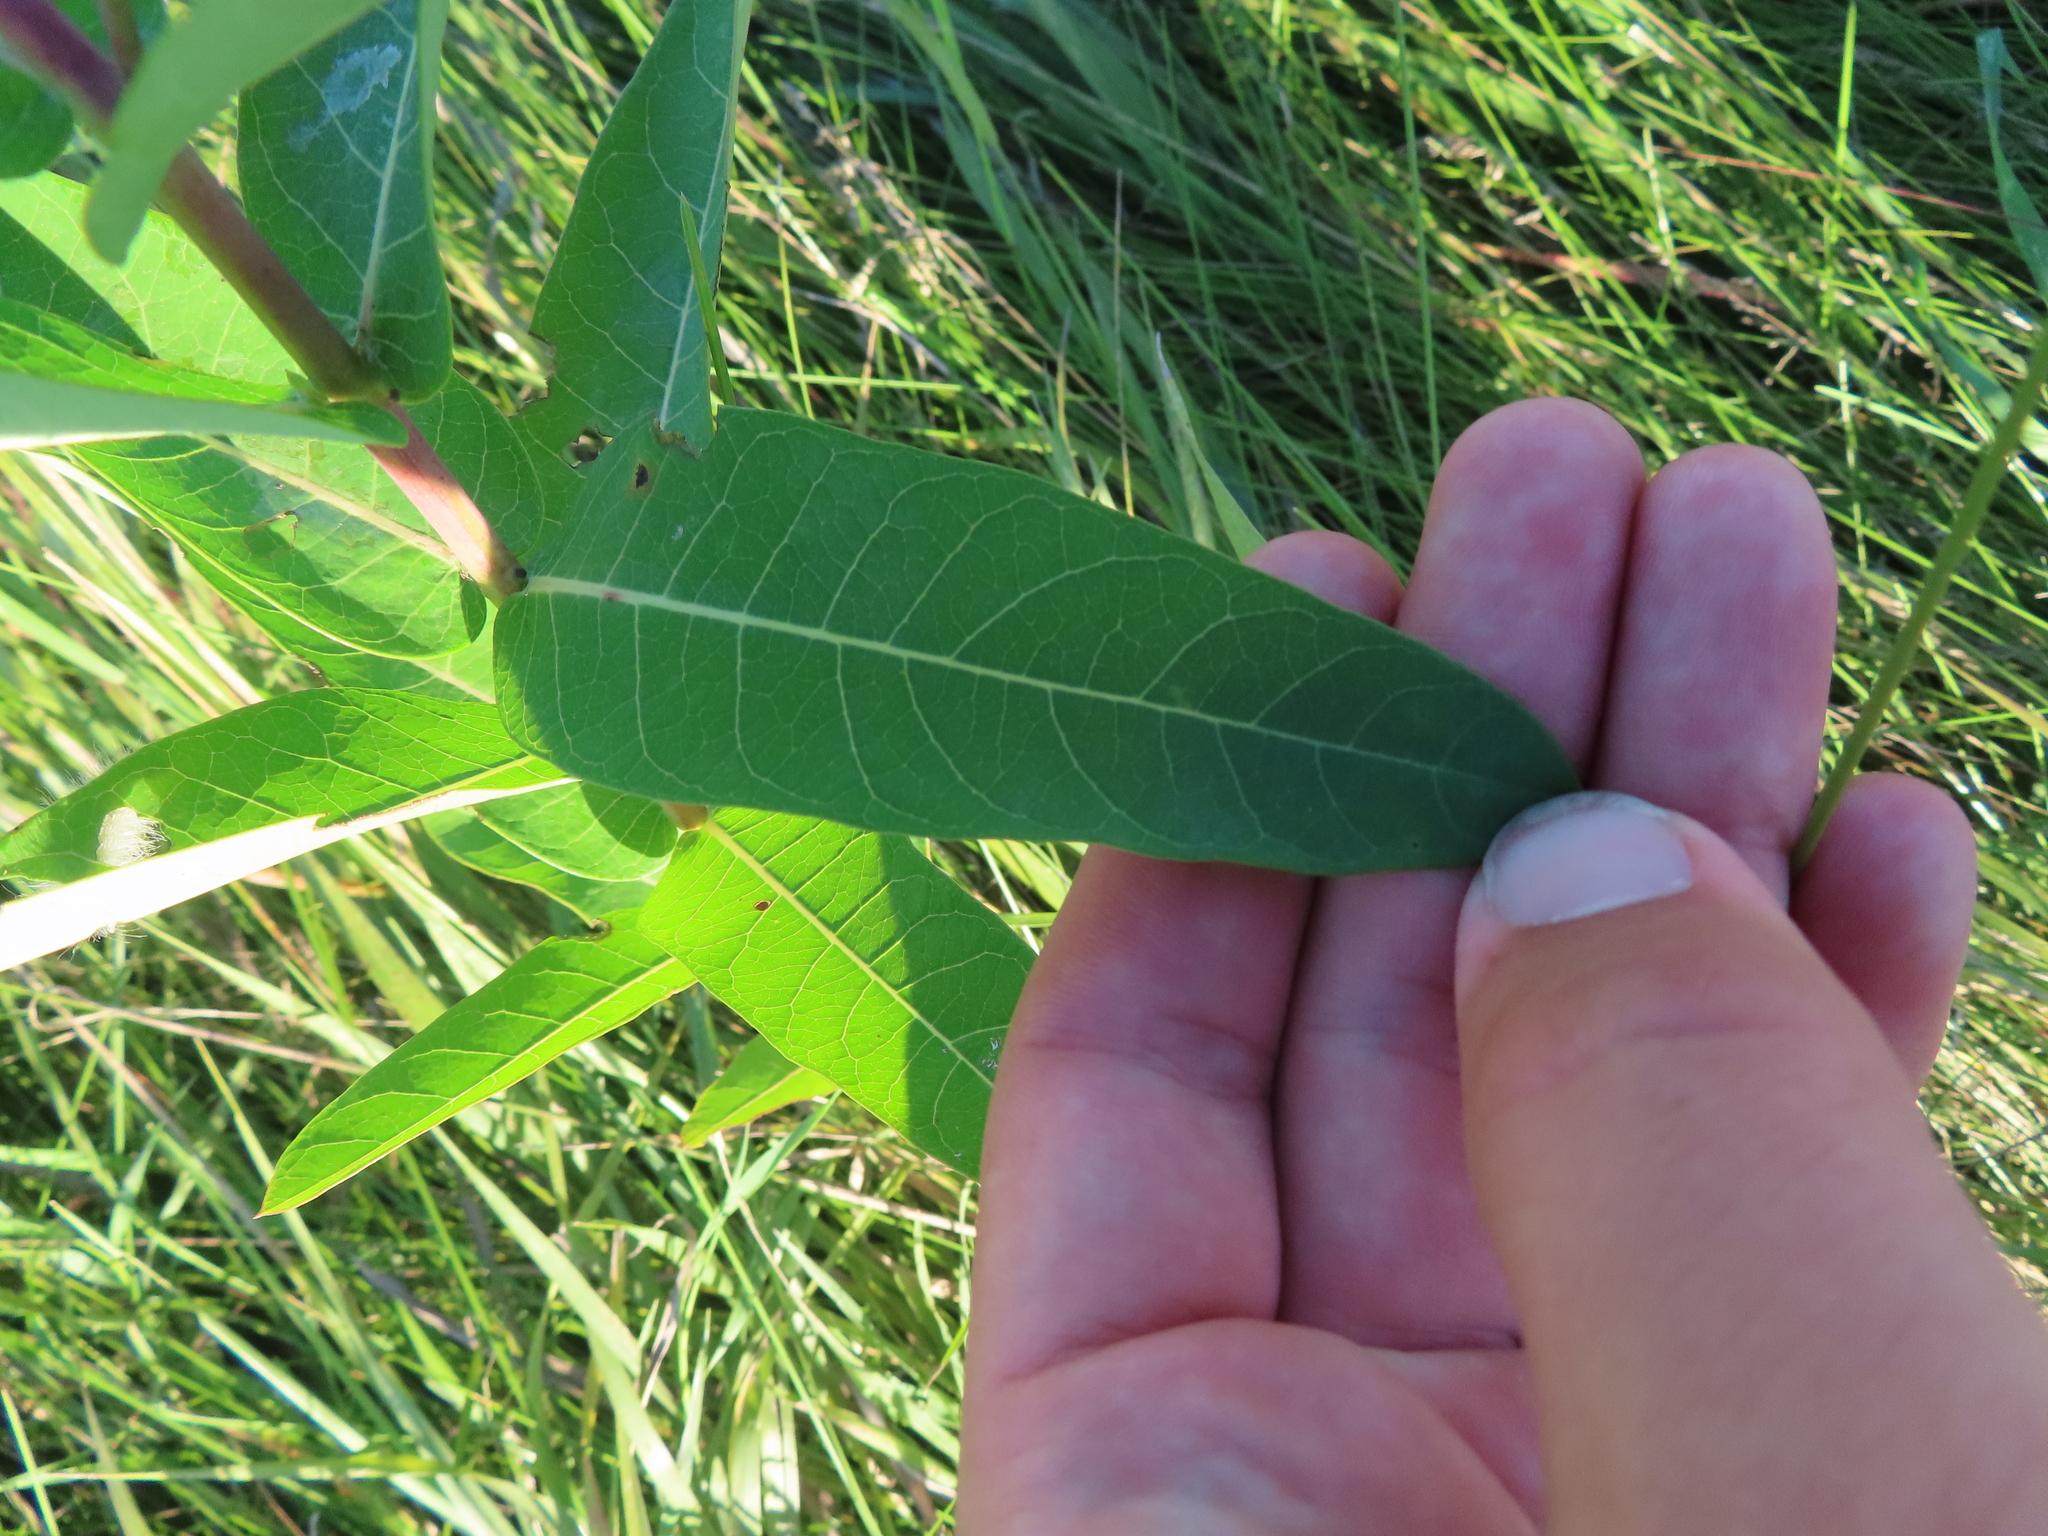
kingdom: Plantae
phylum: Tracheophyta
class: Magnoliopsida
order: Gentianales
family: Apocynaceae
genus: Asclepias
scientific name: Asclepias syriaca
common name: Common milkweed
